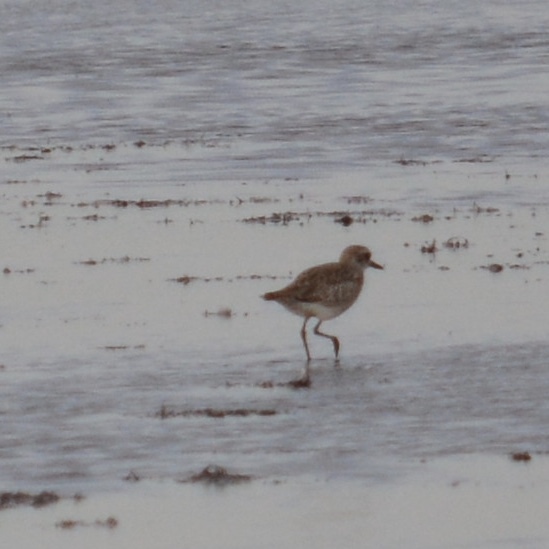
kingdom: Animalia
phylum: Chordata
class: Aves
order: Charadriiformes
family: Charadriidae
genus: Pluvialis
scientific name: Pluvialis squatarola
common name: Grey plover
